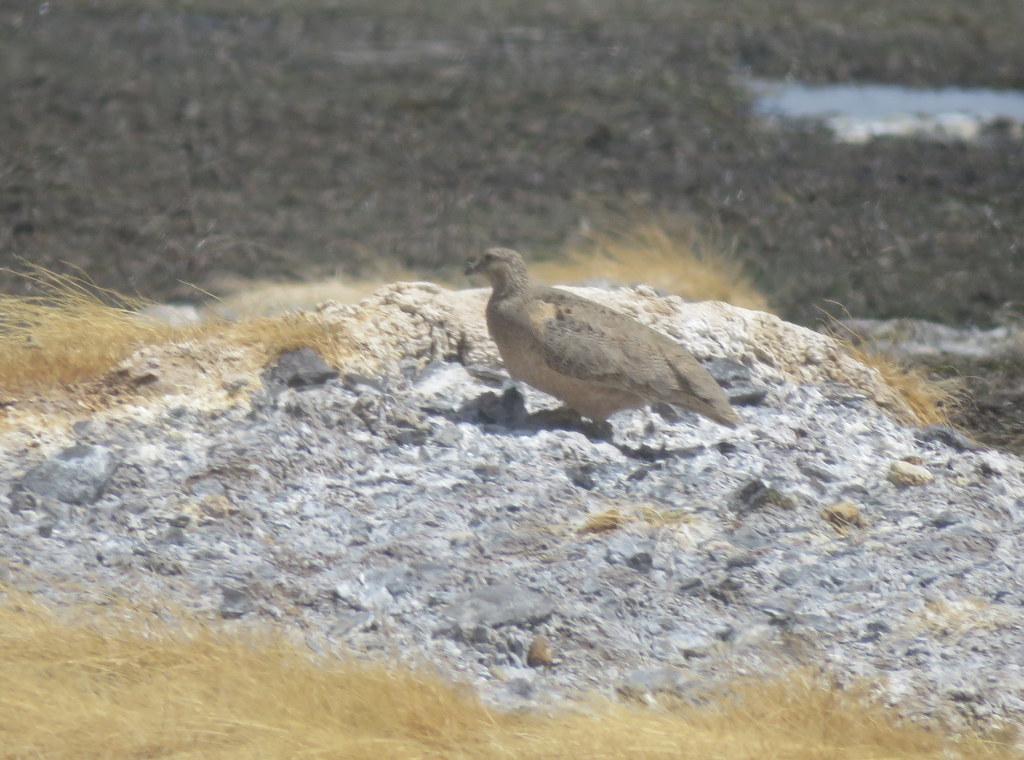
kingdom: Animalia
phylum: Chordata
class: Aves
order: Charadriiformes
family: Thinocoridae
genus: Attagis
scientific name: Attagis gayi
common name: Rufous-bellied seedsnipe
